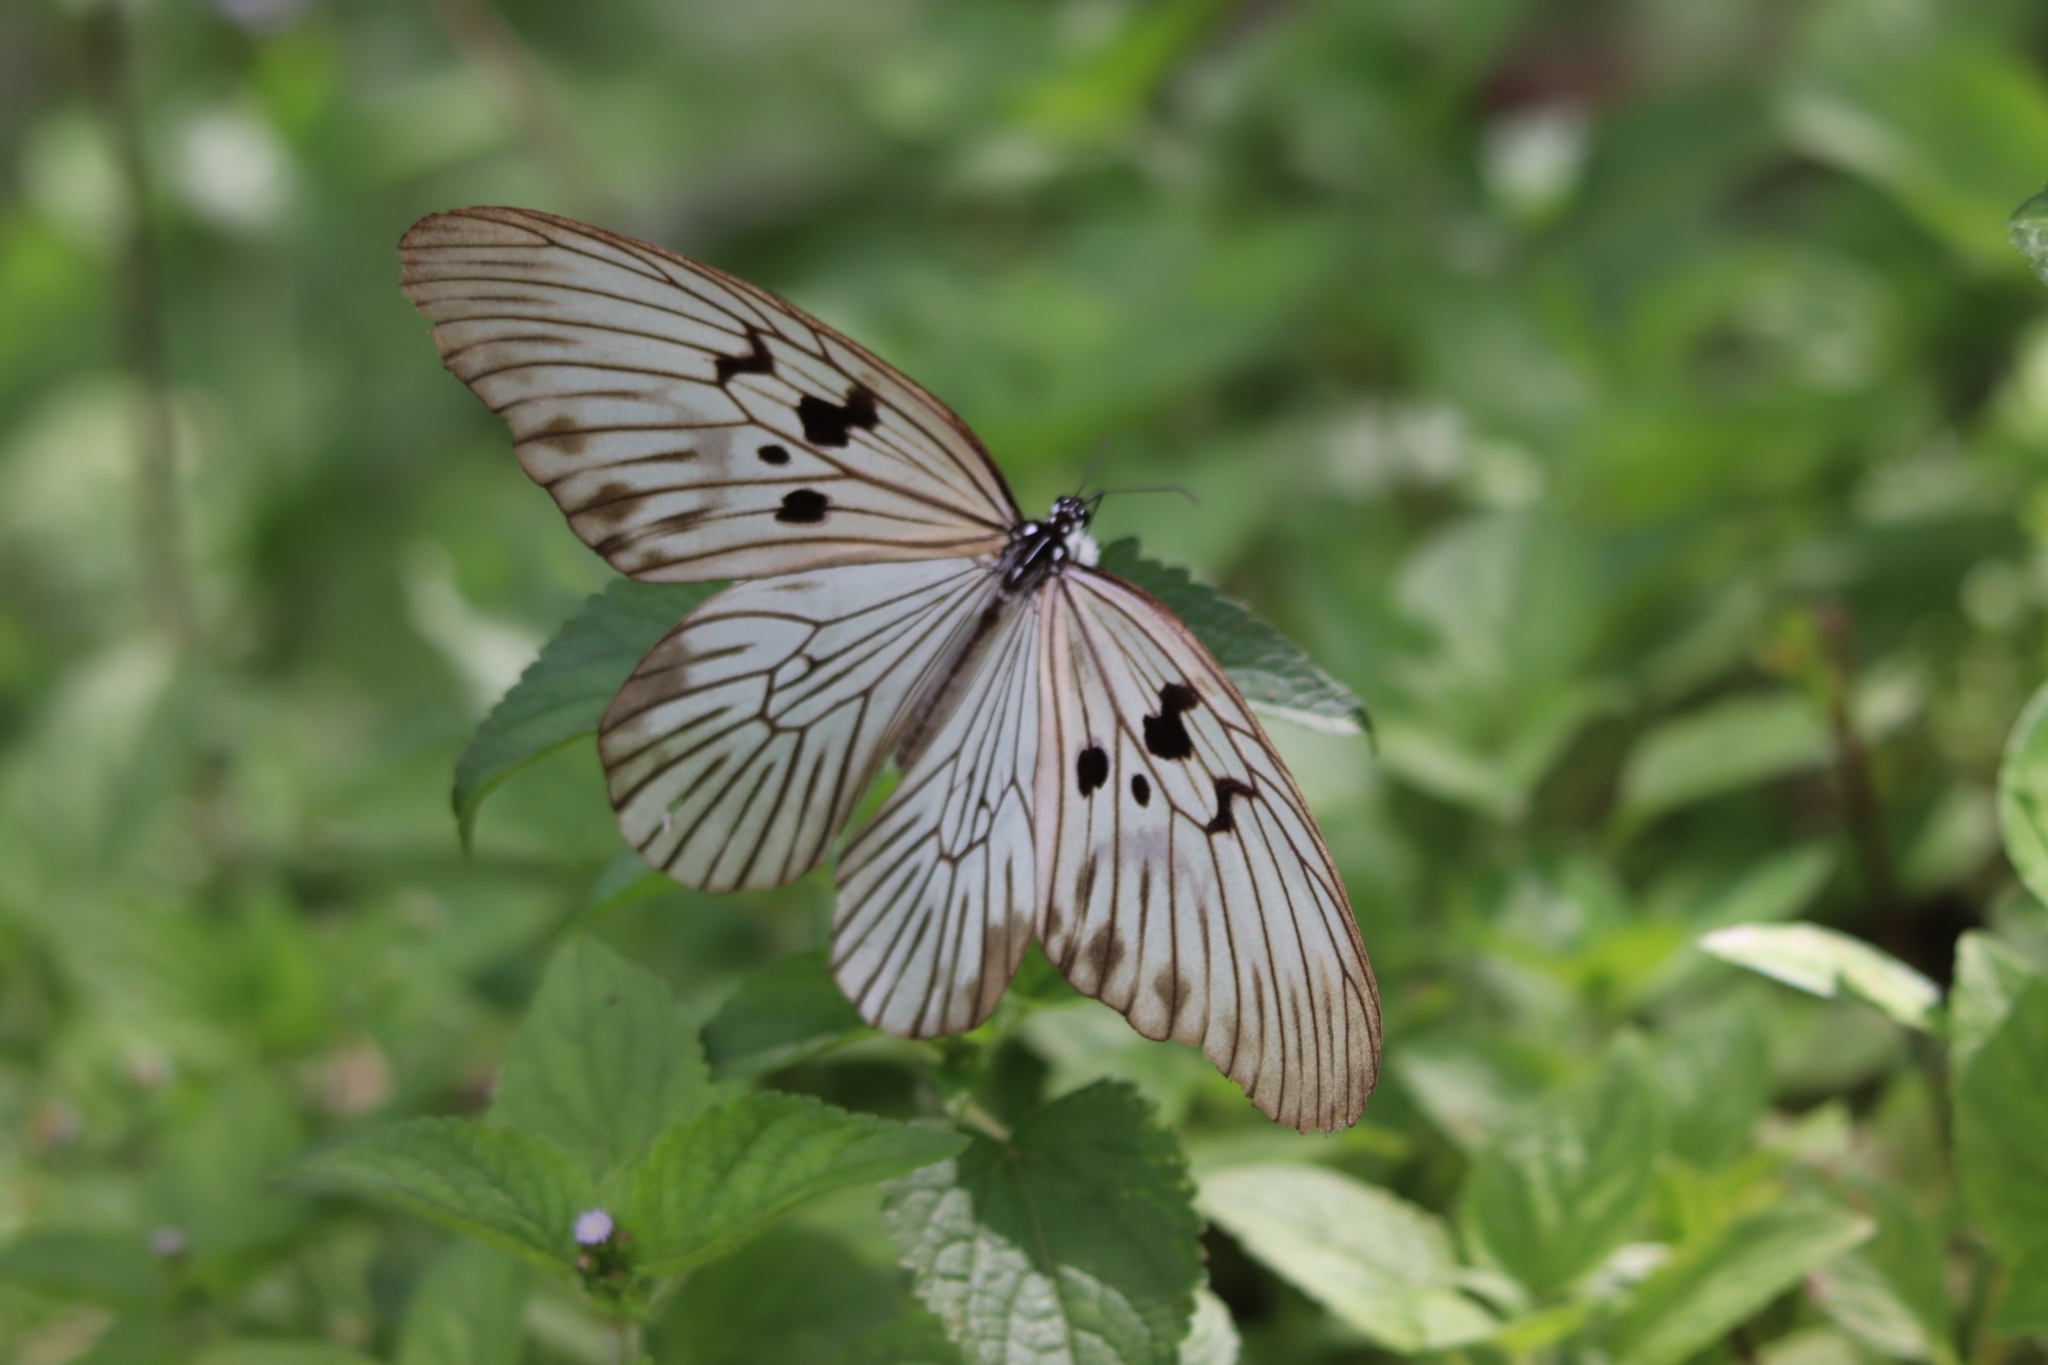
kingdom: Animalia
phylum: Arthropoda
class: Insecta
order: Lepidoptera
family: Nymphalidae
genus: Idea
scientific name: Idea blanchardii
